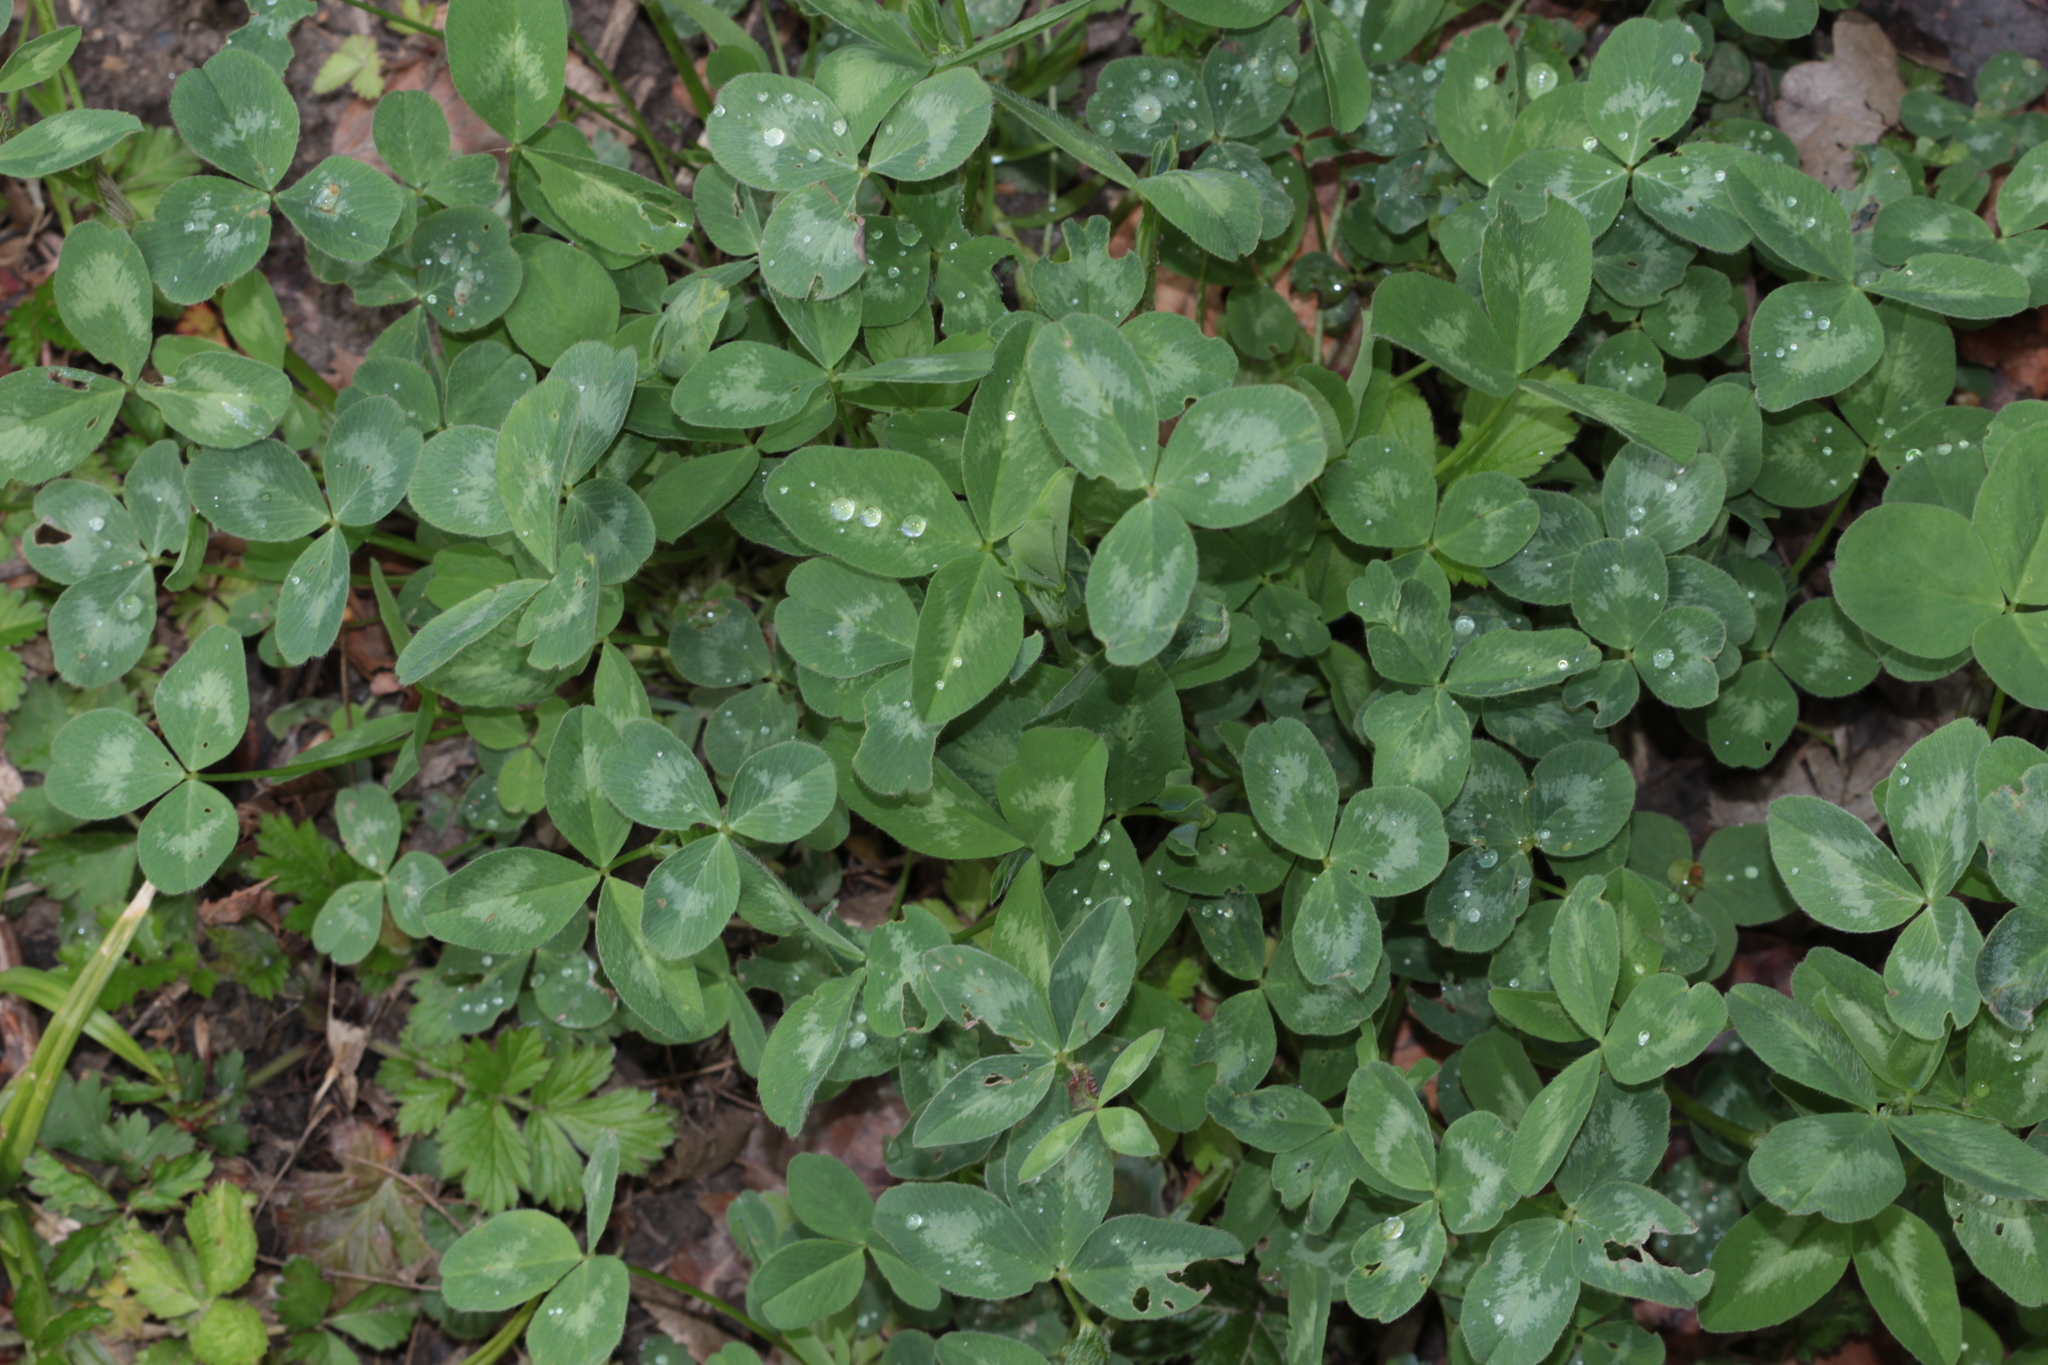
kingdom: Plantae
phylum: Tracheophyta
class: Magnoliopsida
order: Fabales
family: Fabaceae
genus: Trifolium
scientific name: Trifolium pratense
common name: Red clover
